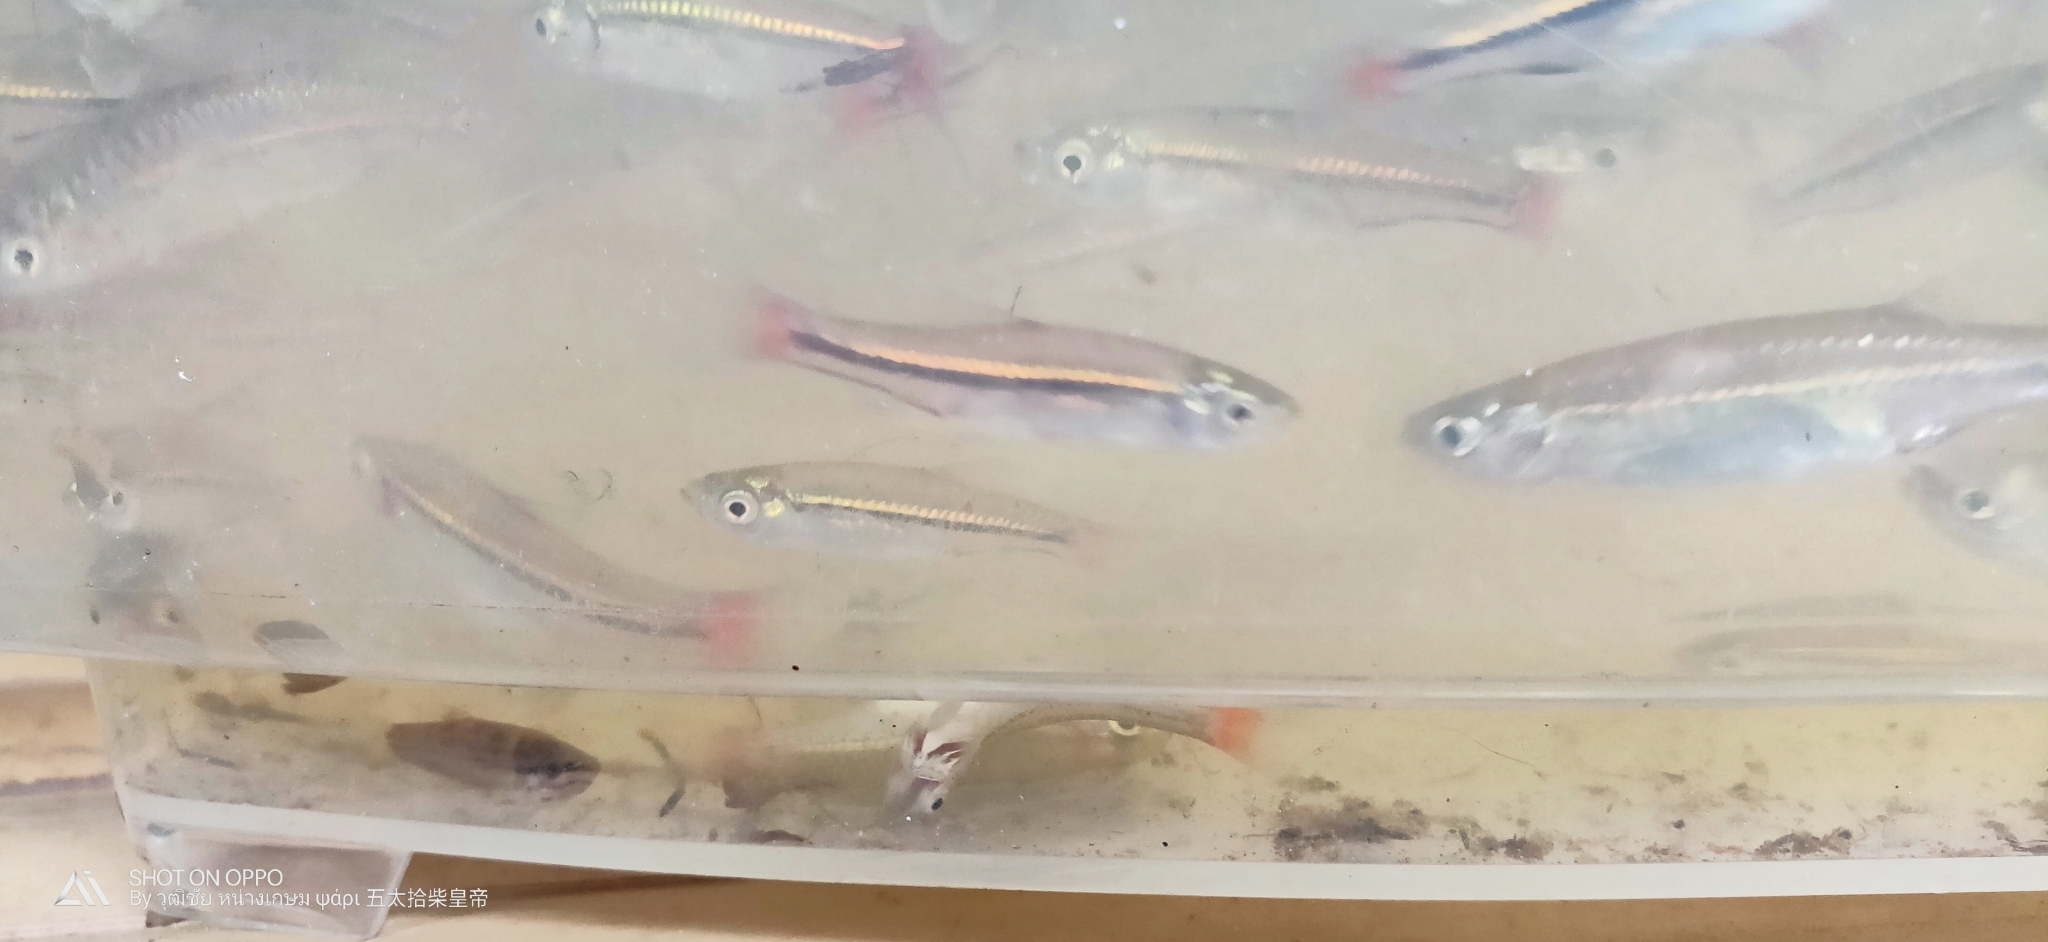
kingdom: Animalia
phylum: Chordata
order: Cypriniformes
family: Cyprinidae
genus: Rasbora
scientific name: Rasbora borapetensis
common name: Blackline rasbora
